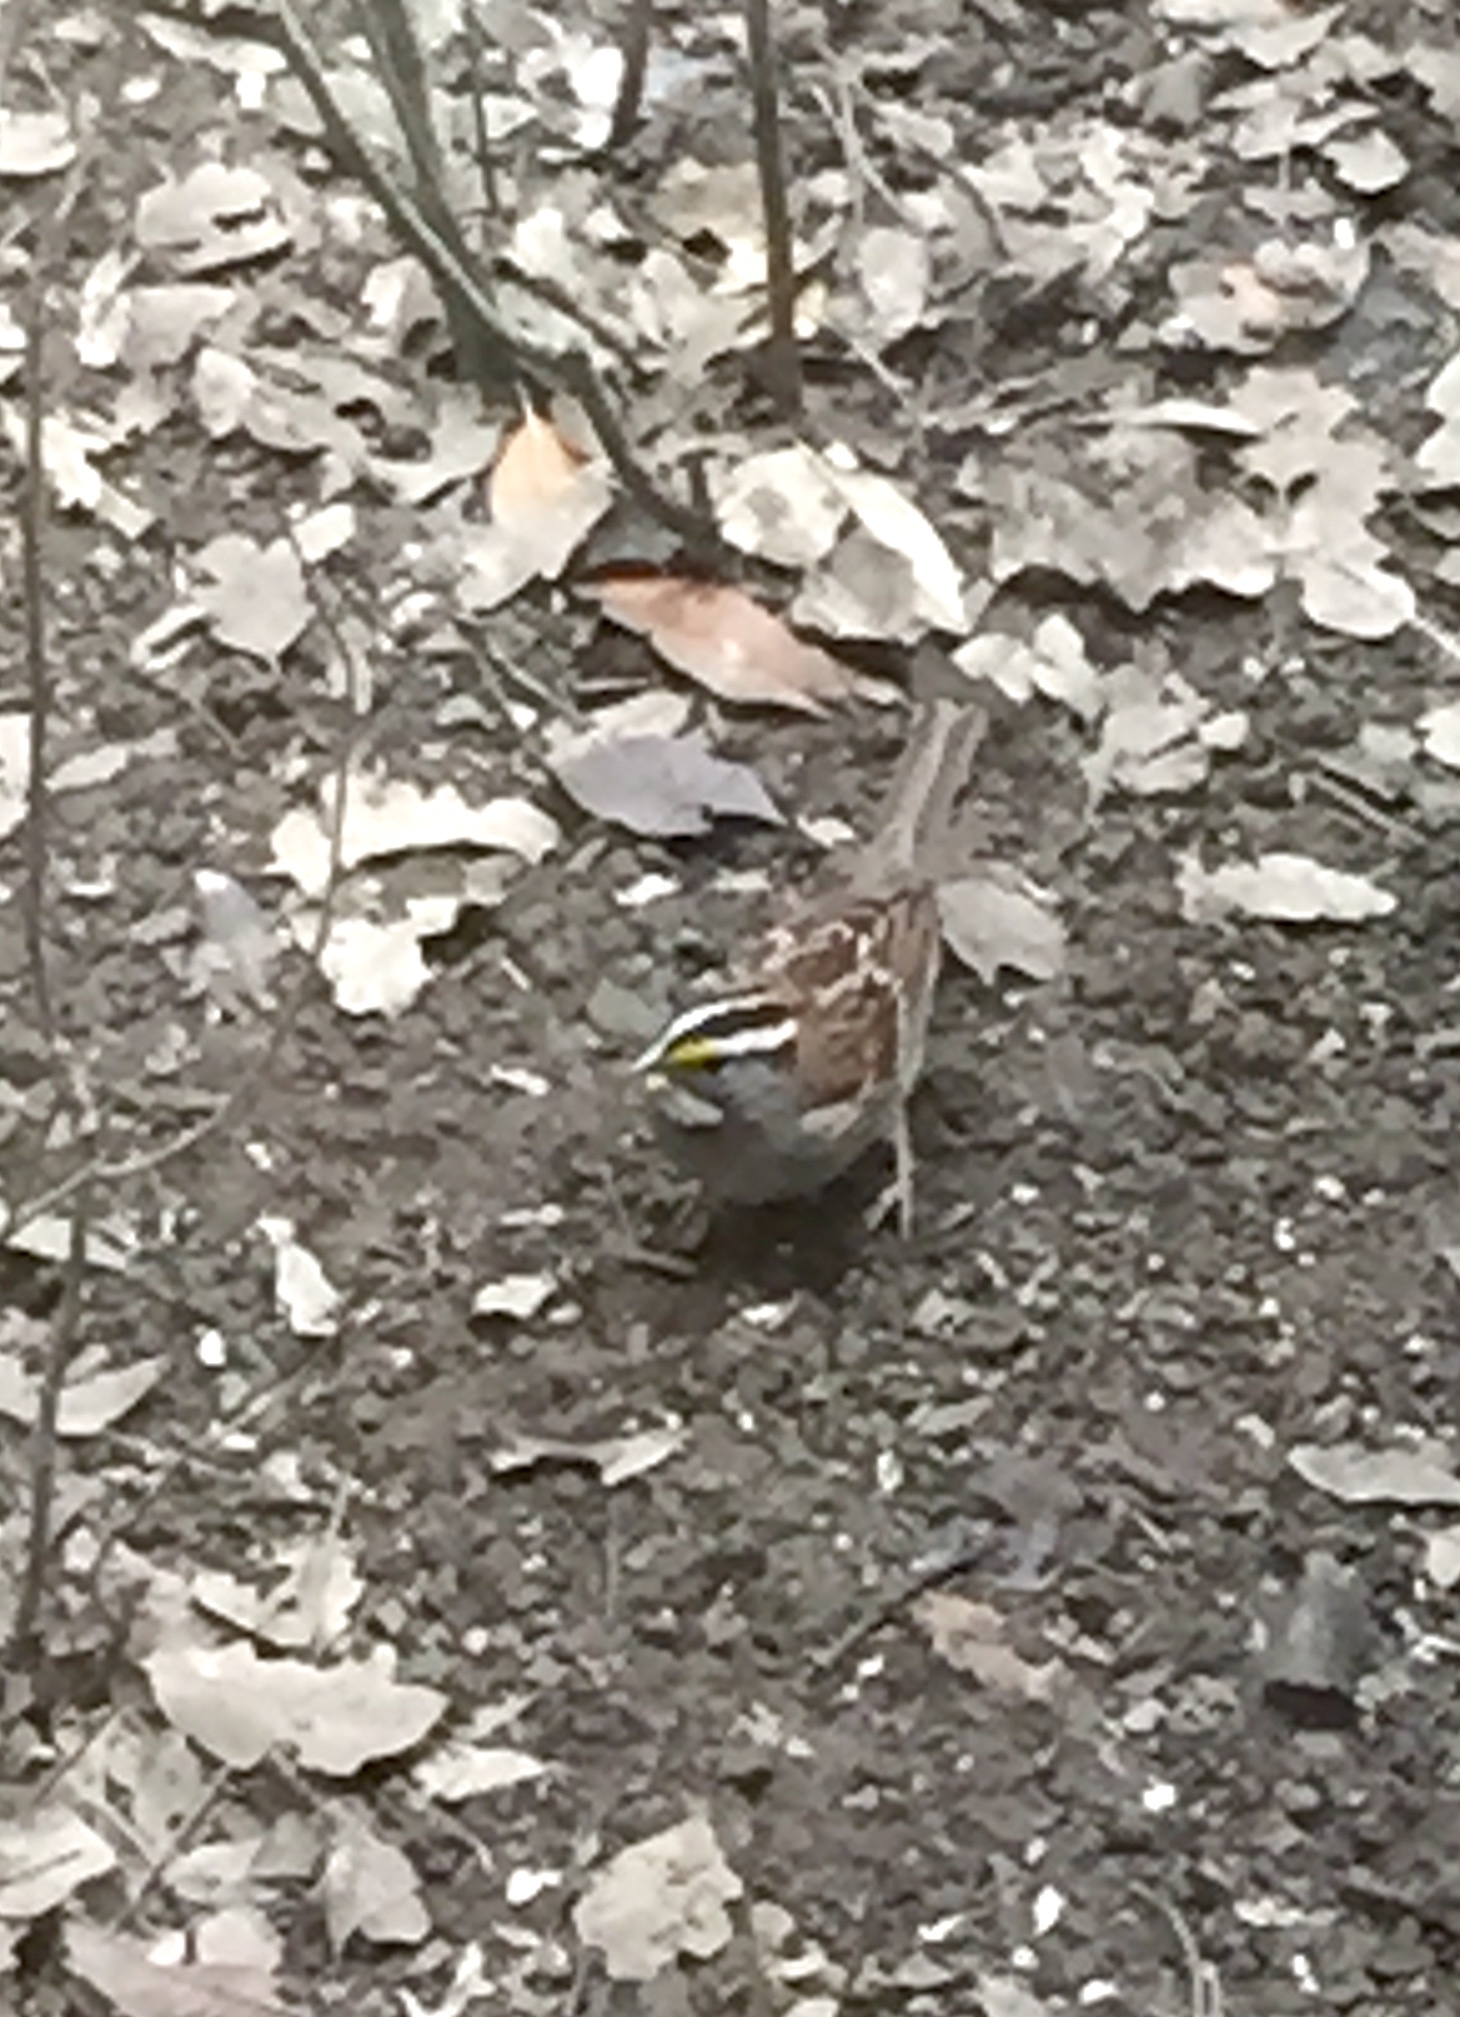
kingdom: Animalia
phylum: Chordata
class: Aves
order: Passeriformes
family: Passerellidae
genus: Zonotrichia
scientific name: Zonotrichia albicollis
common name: White-throated sparrow
